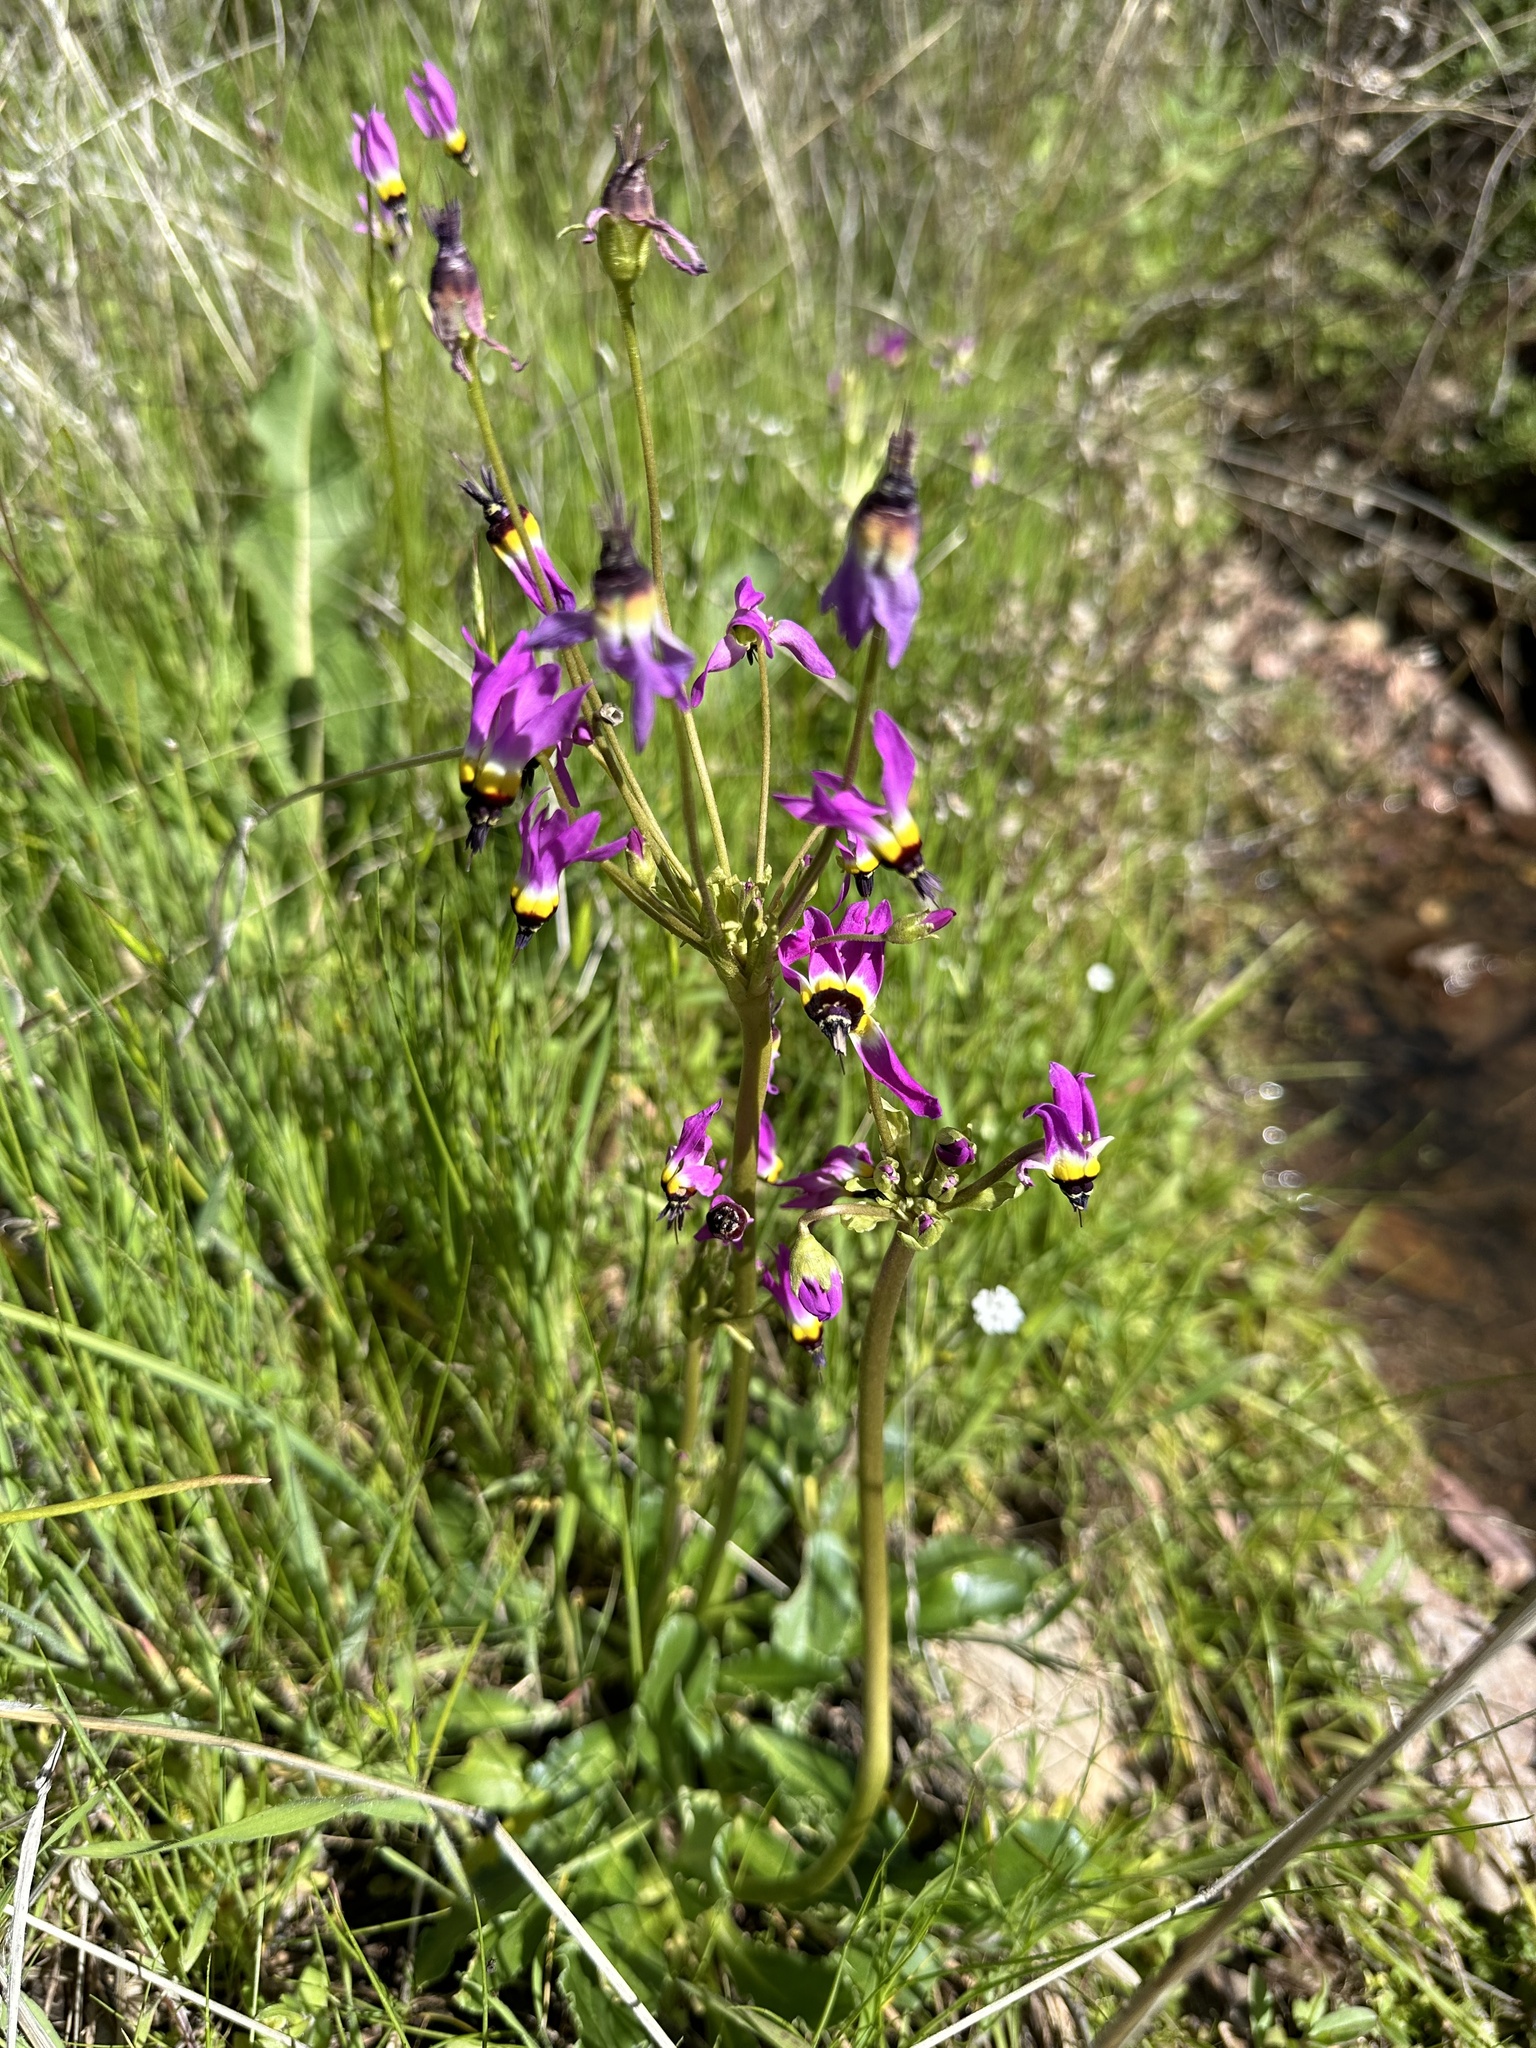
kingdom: Plantae
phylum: Tracheophyta
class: Magnoliopsida
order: Ericales
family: Primulaceae
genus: Dodecatheon
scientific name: Dodecatheon clevelandii
